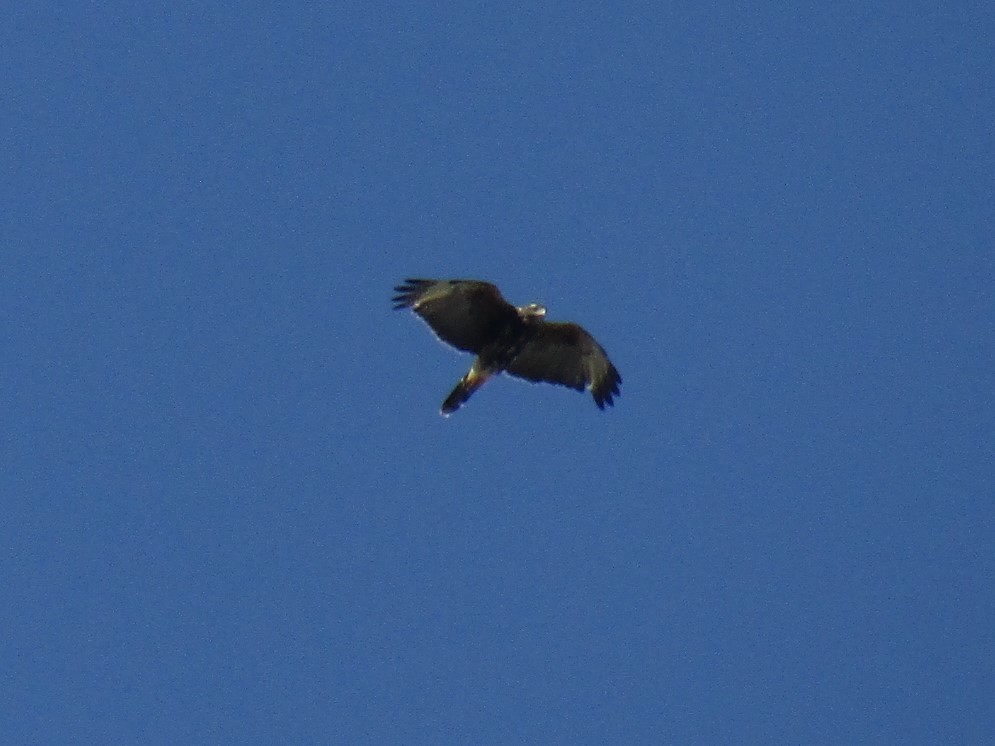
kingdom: Animalia
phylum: Chordata
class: Aves
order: Accipitriformes
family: Accipitridae
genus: Parabuteo
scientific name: Parabuteo unicinctus
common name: Harris's hawk
